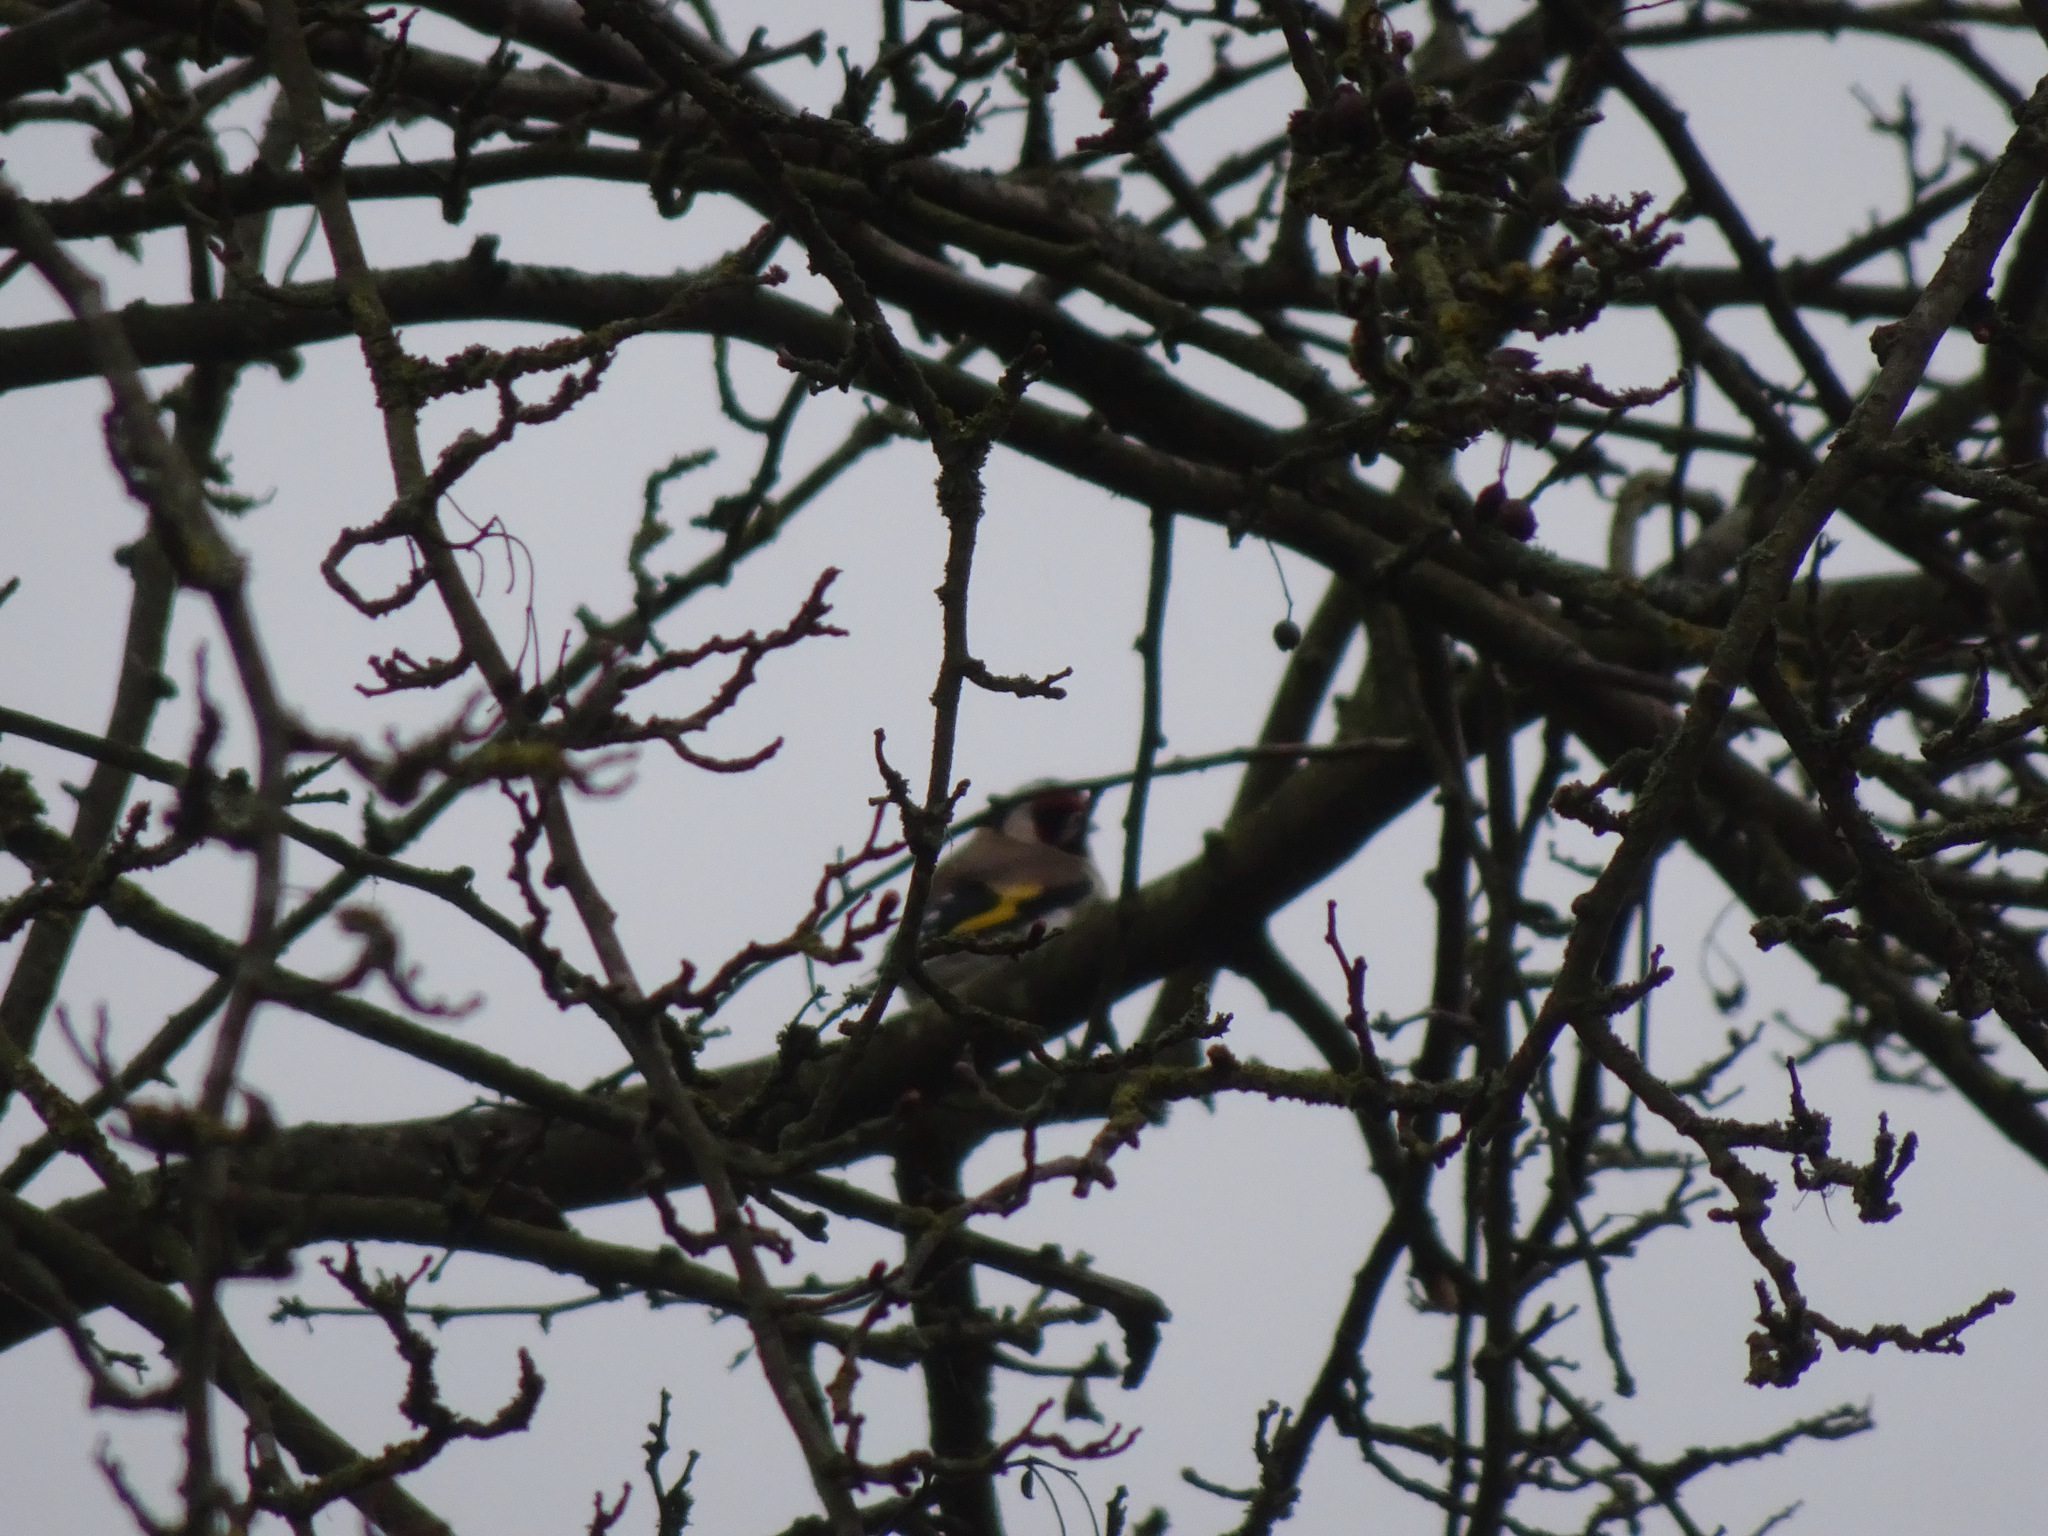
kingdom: Animalia
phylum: Chordata
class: Aves
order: Passeriformes
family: Fringillidae
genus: Carduelis
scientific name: Carduelis carduelis
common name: European goldfinch
